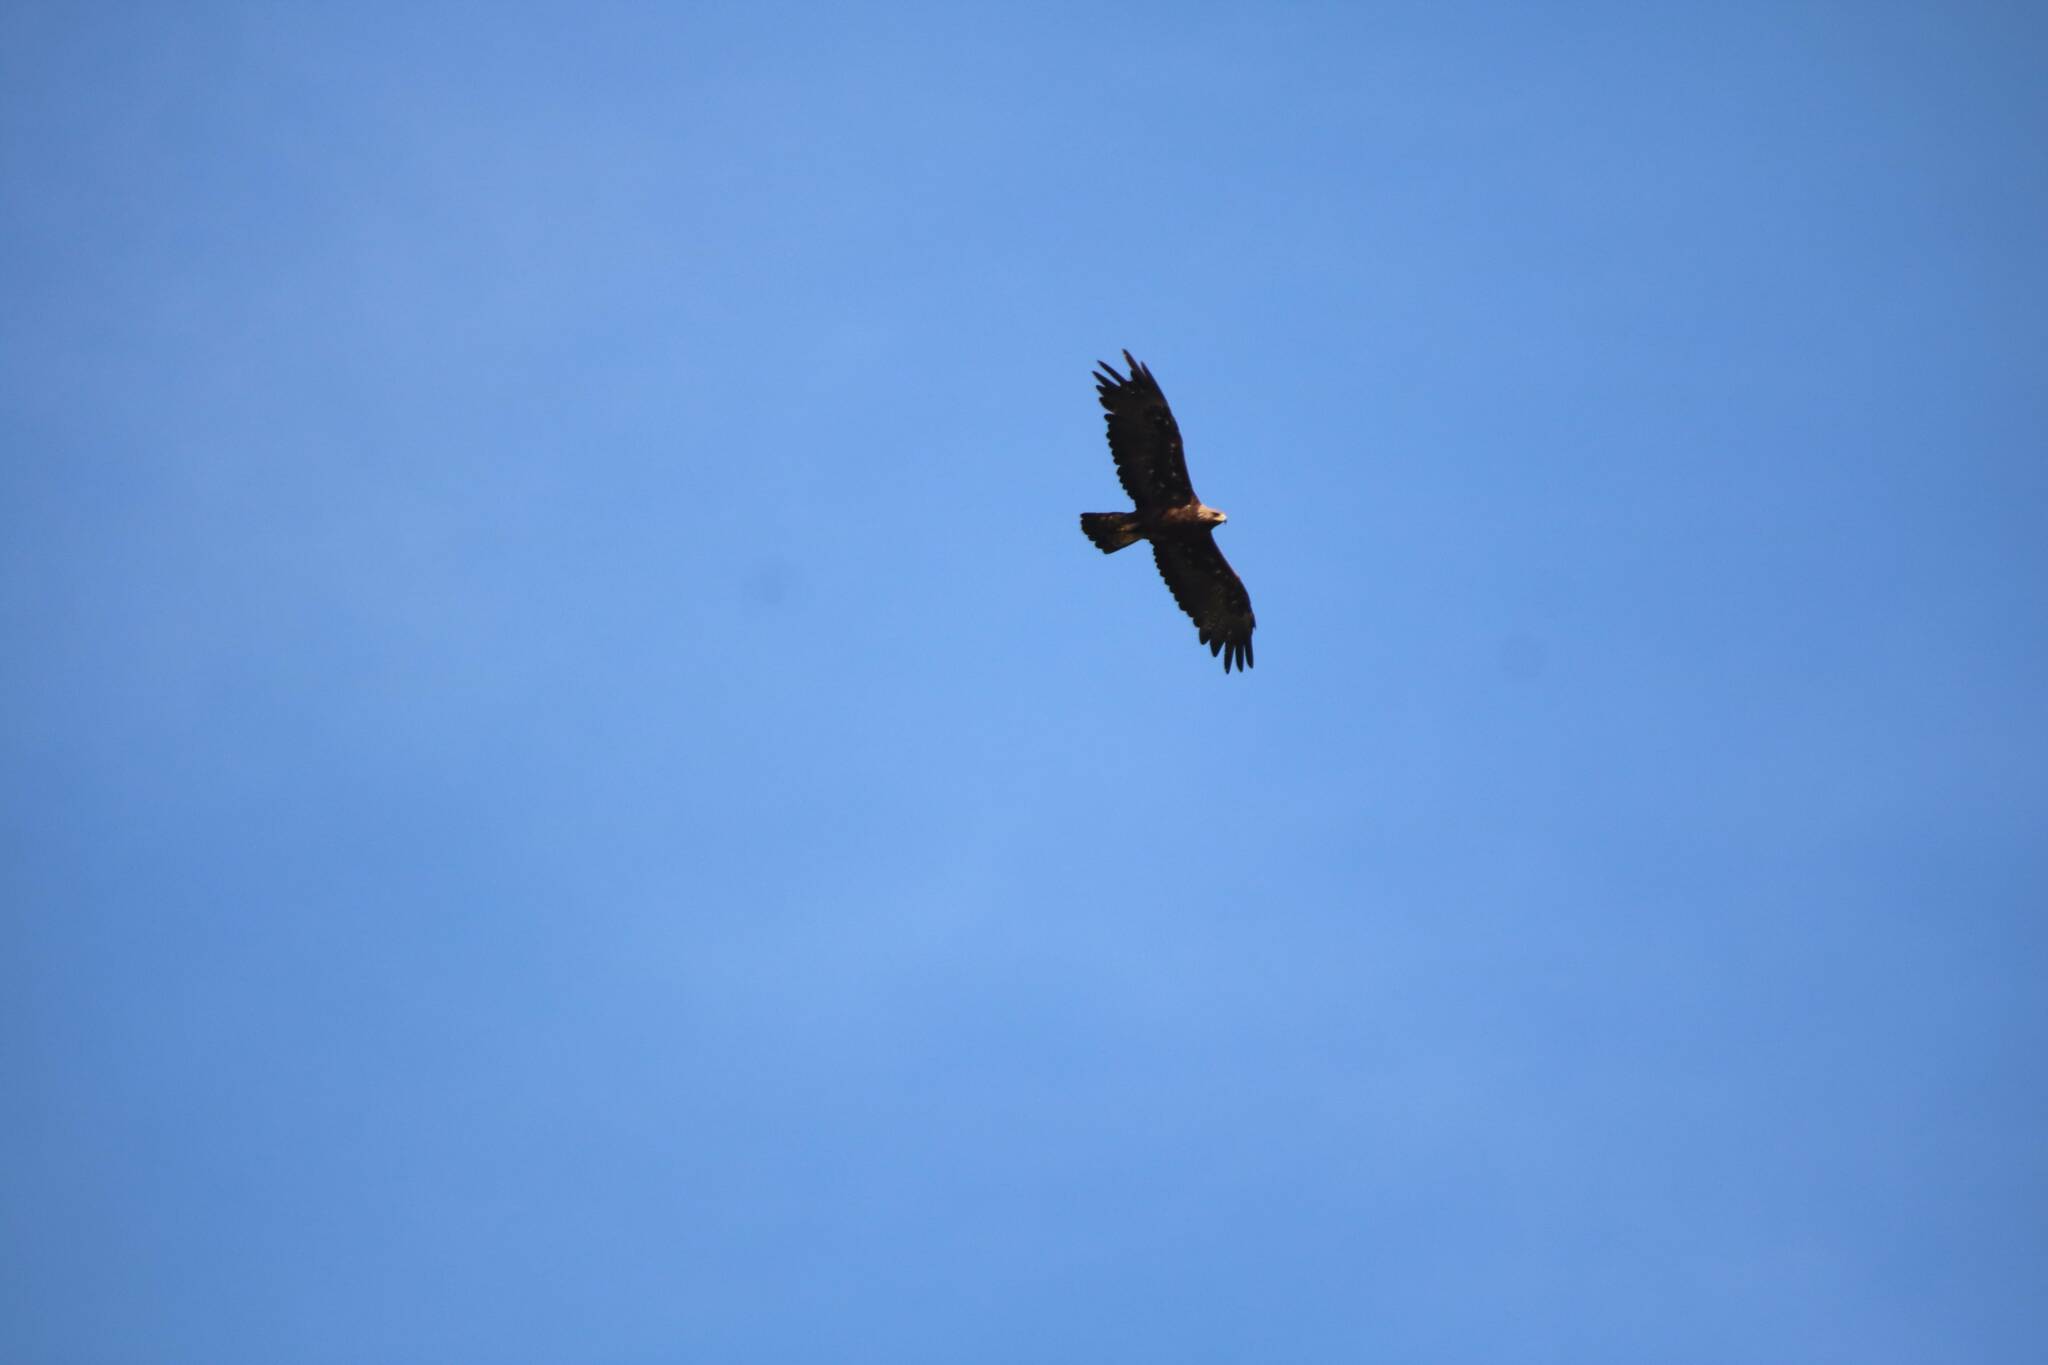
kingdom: Animalia
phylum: Chordata
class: Aves
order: Accipitriformes
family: Accipitridae
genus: Aquila
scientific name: Aquila chrysaetos
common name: Golden eagle
